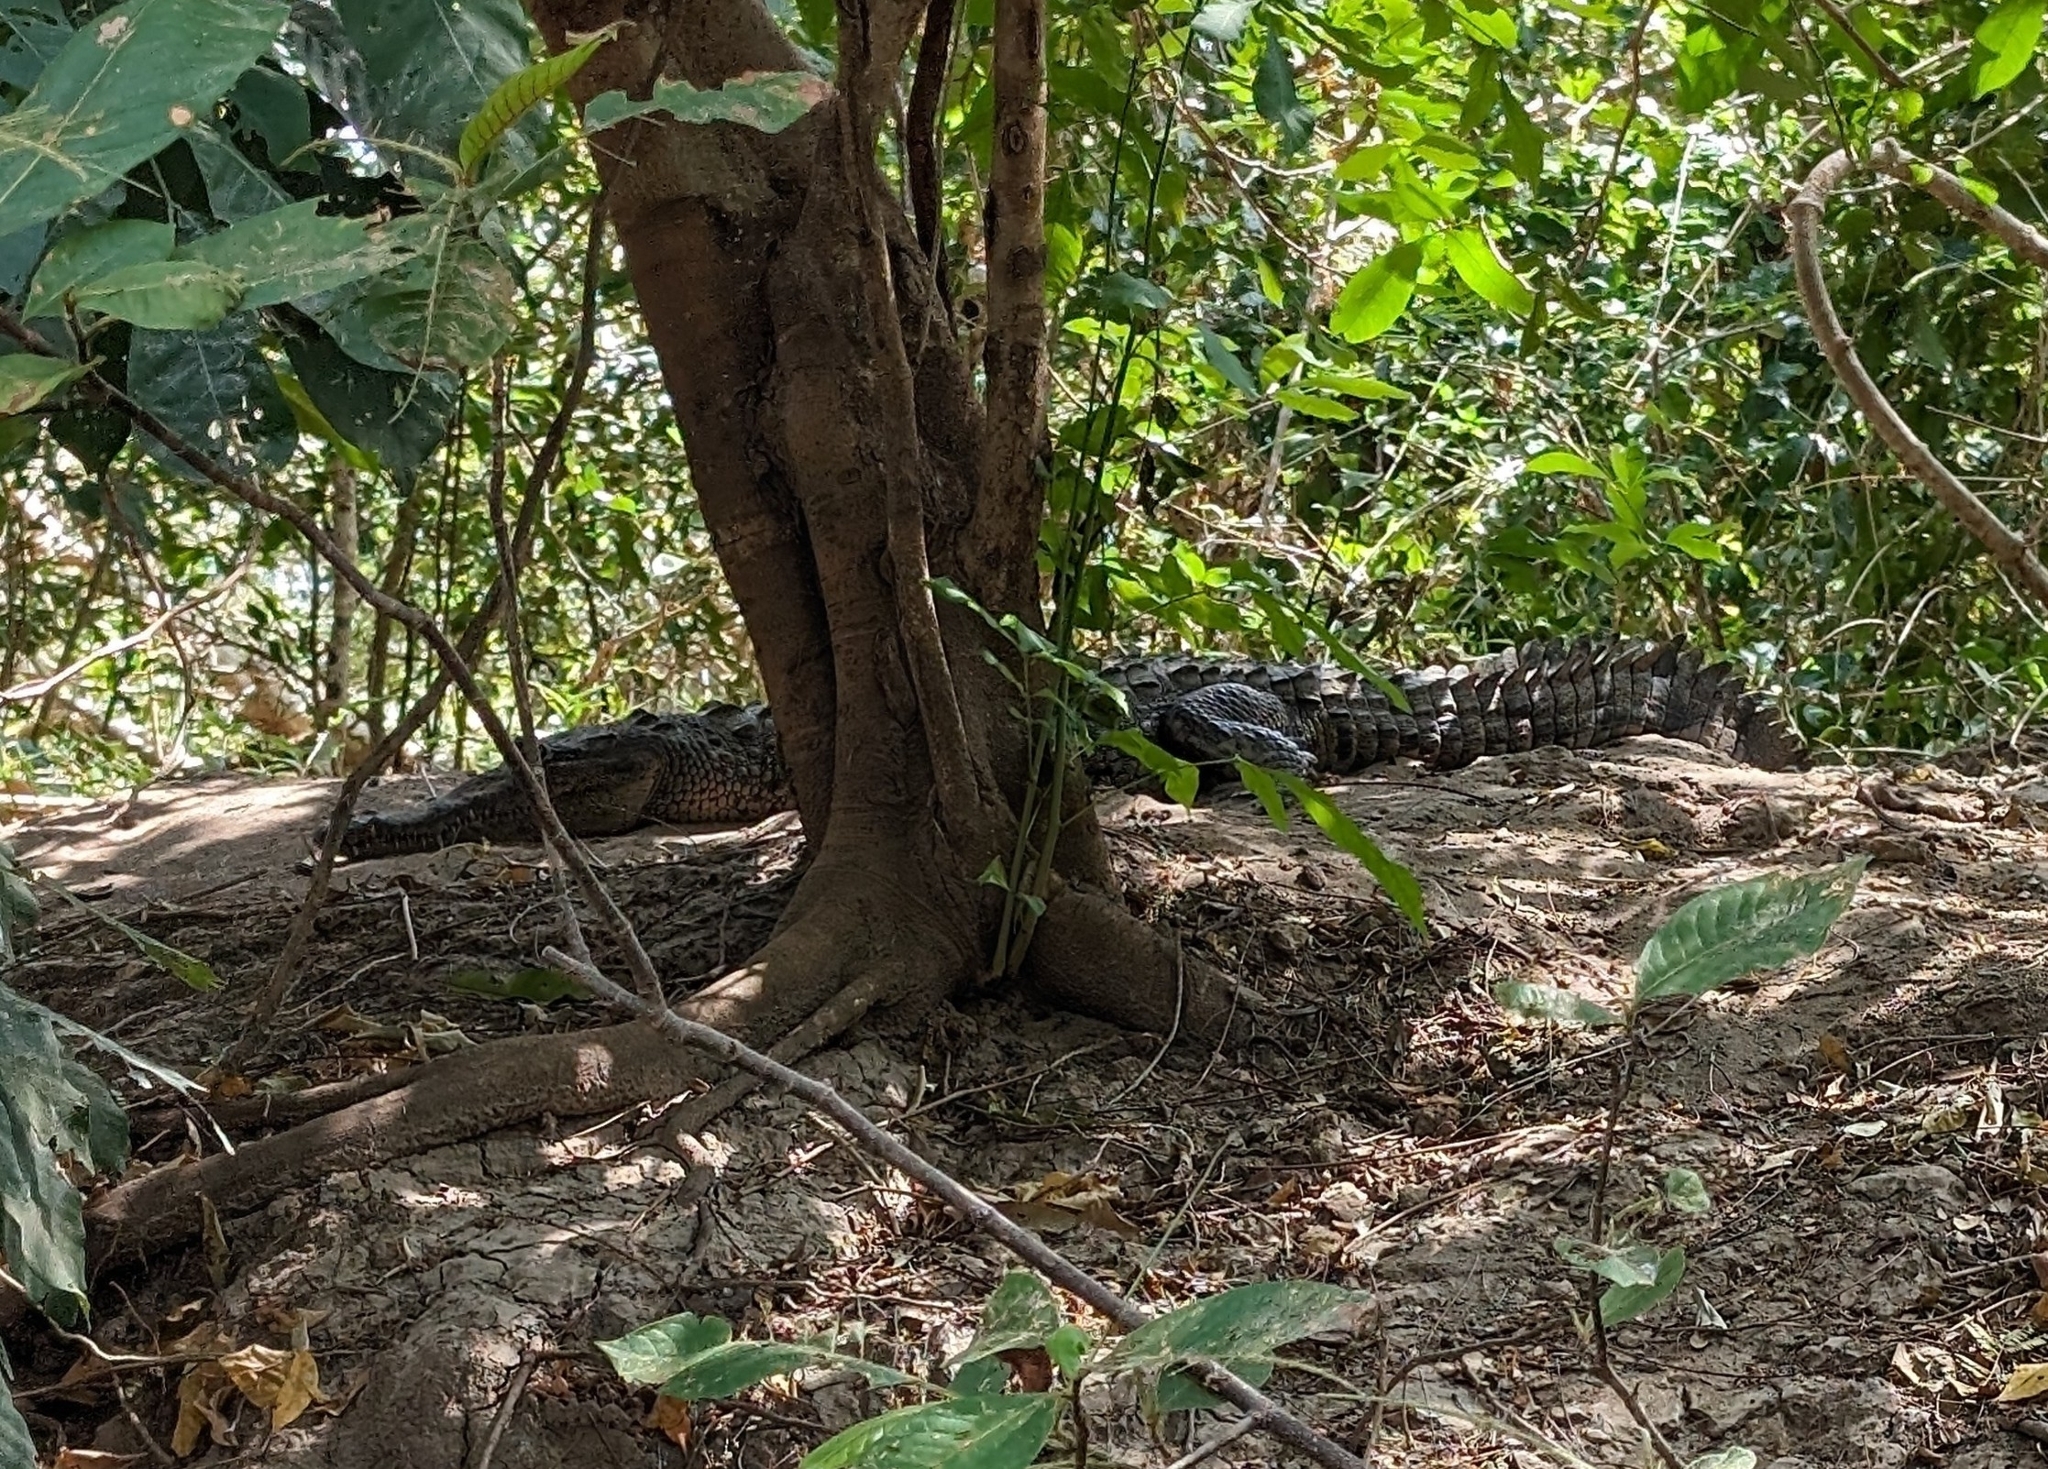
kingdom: Animalia
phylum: Chordata
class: Crocodylia
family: Crocodylidae
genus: Crocodylus
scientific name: Crocodylus acutus
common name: American crocodile
